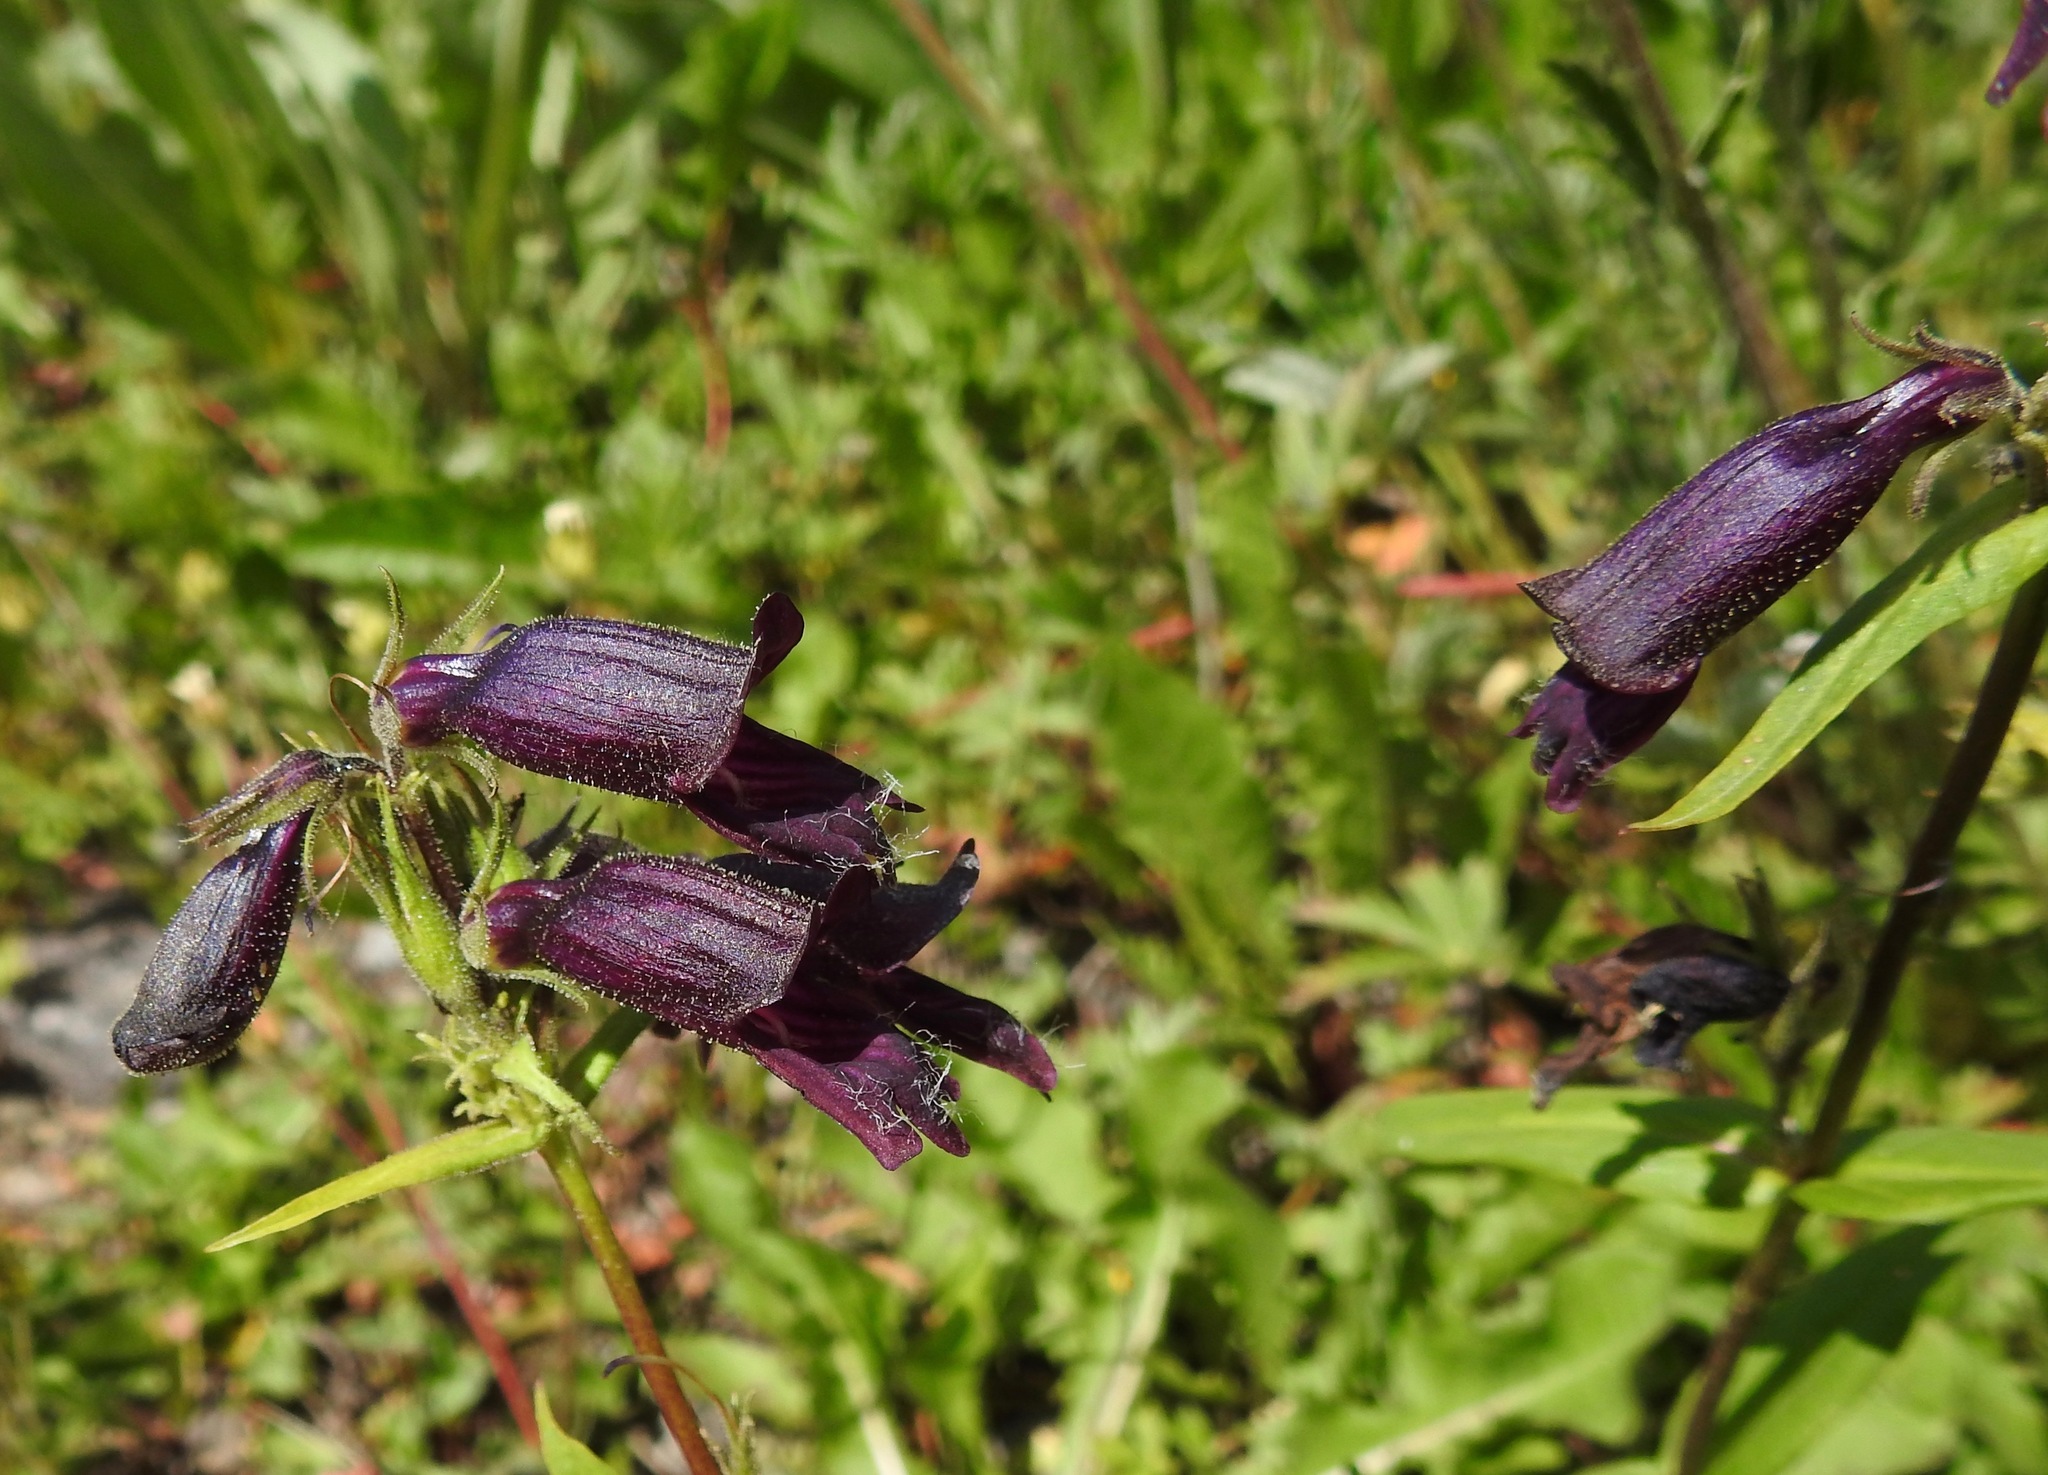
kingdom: Plantae
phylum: Tracheophyta
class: Magnoliopsida
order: Lamiales
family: Plantaginaceae
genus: Penstemon
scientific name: Penstemon whippleanus
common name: Whipple's penstemon
